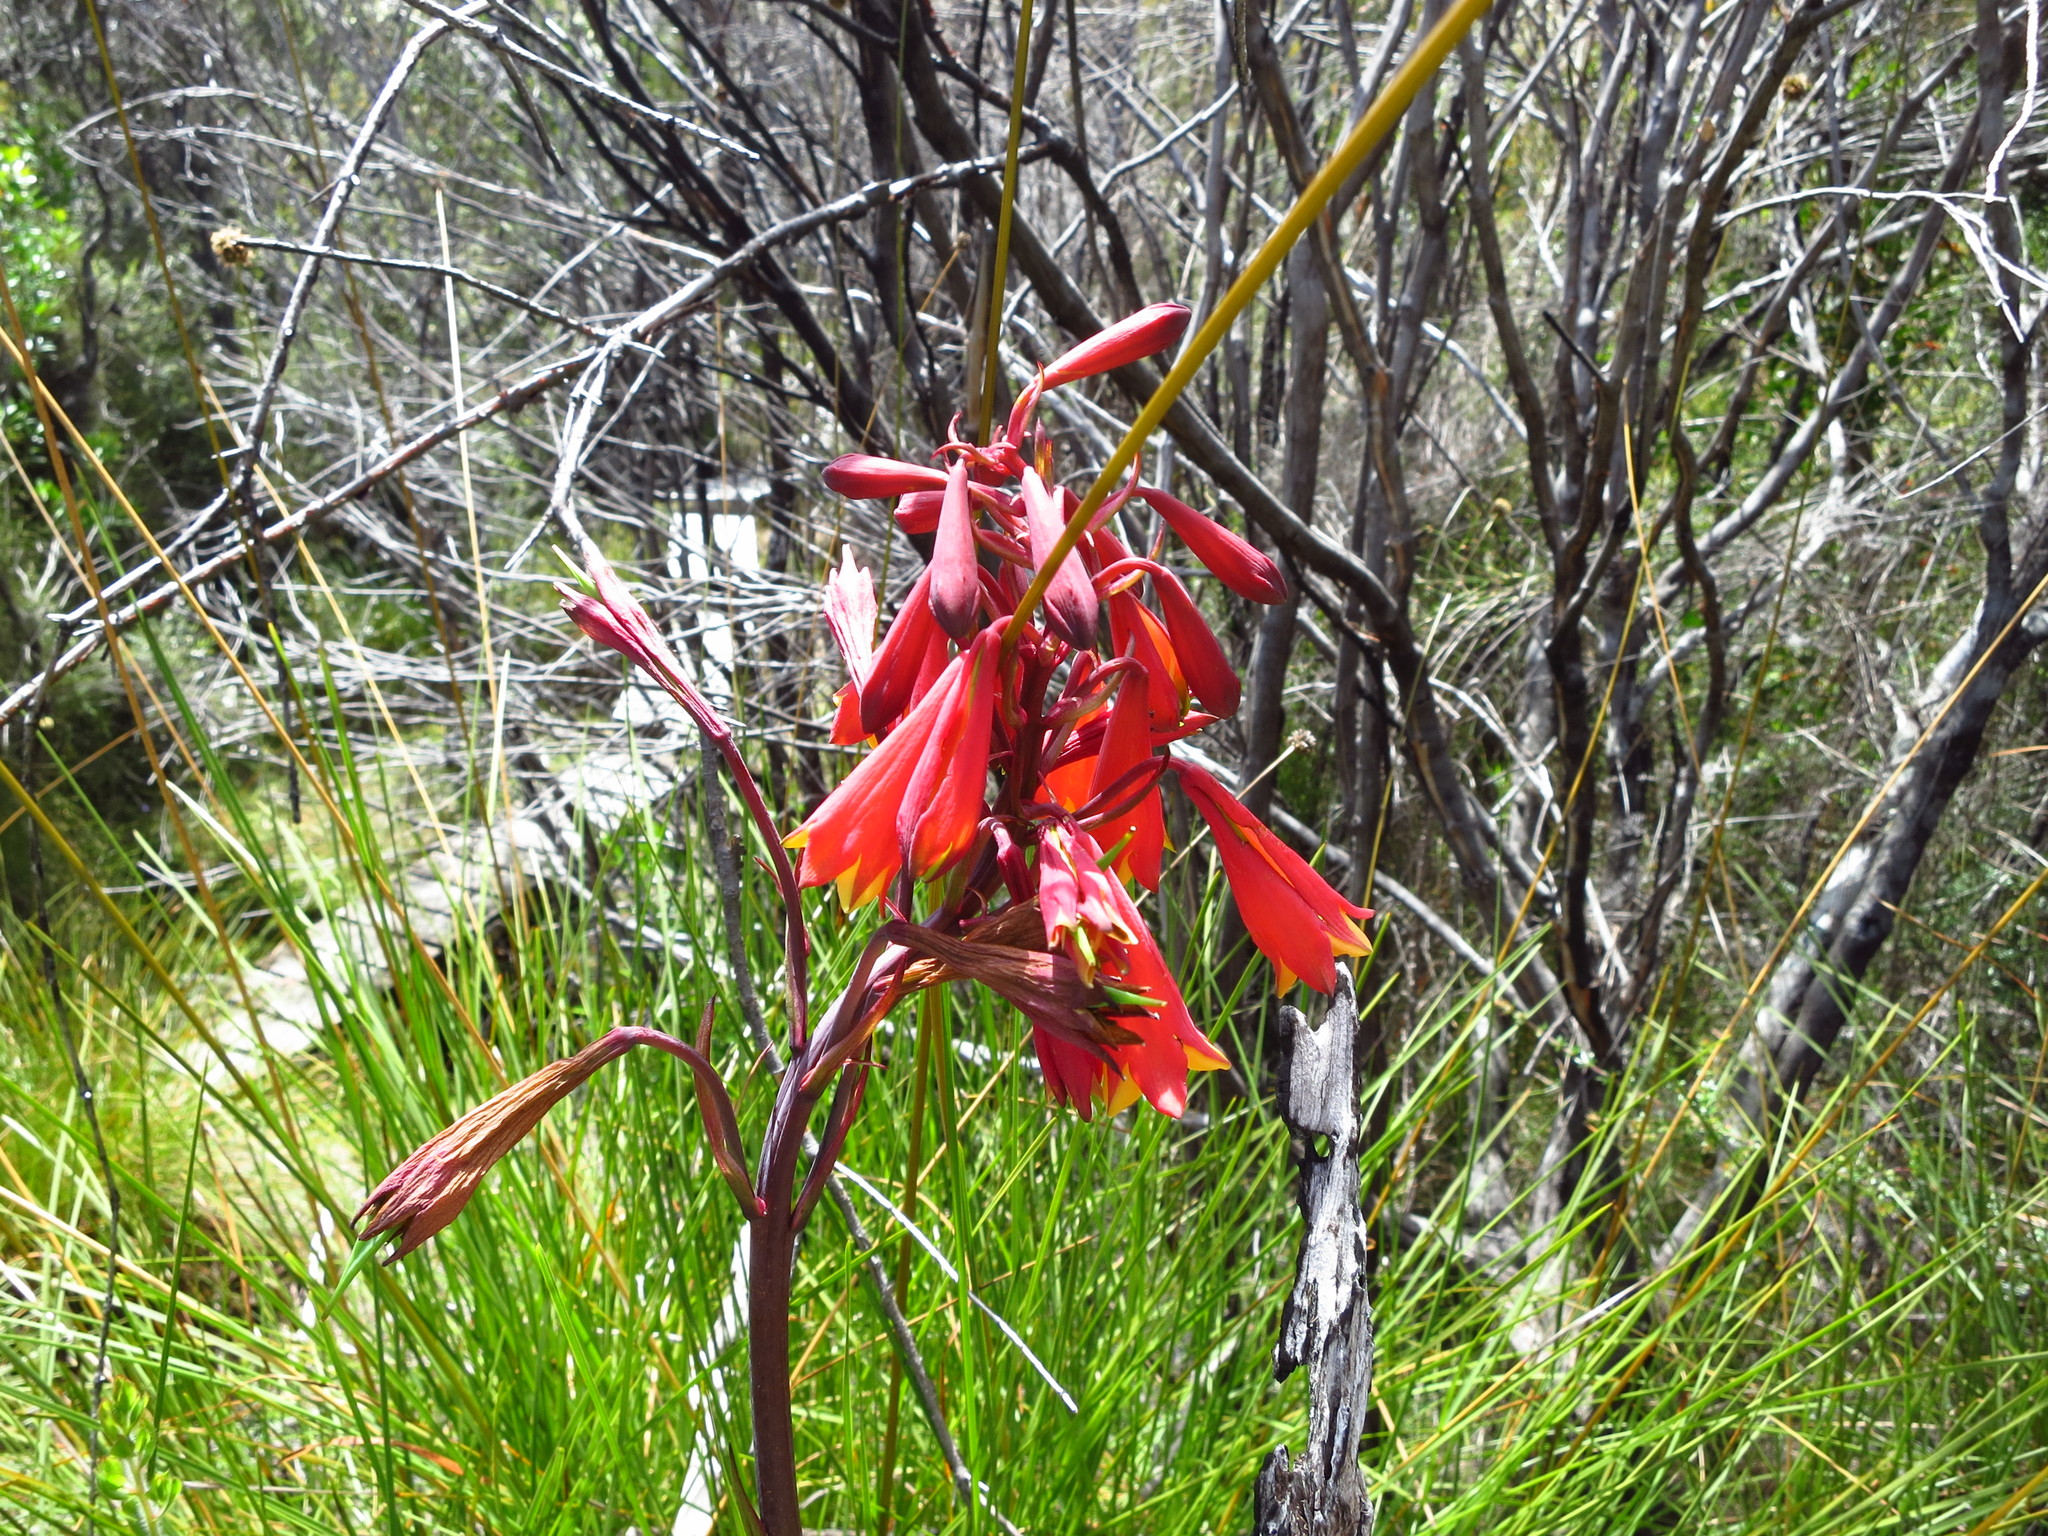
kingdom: Plantae
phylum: Tracheophyta
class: Liliopsida
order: Asparagales
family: Blandfordiaceae
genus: Blandfordia
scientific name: Blandfordia punicea
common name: Tasmanian christmas-bell
